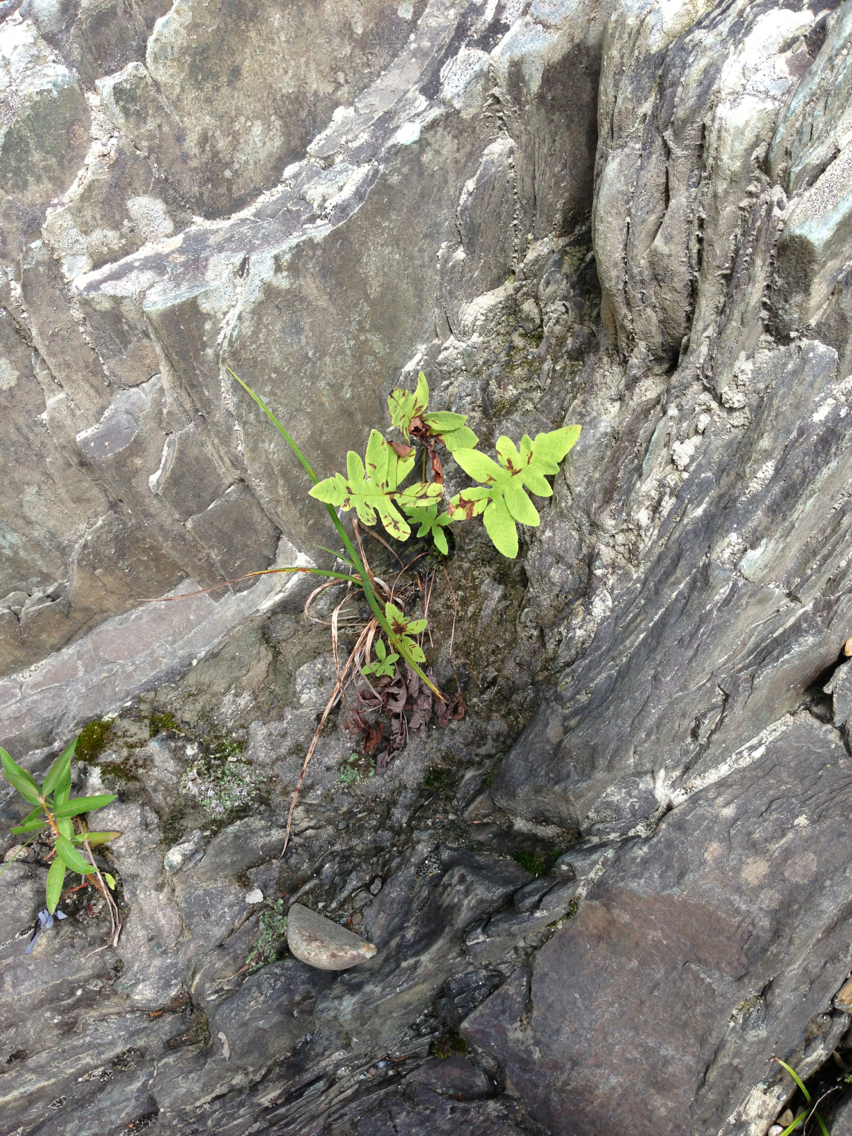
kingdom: Plantae
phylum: Tracheophyta
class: Polypodiopsida
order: Polypodiales
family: Onocleaceae
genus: Onoclea
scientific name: Onoclea sensibilis
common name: Sensitive fern
